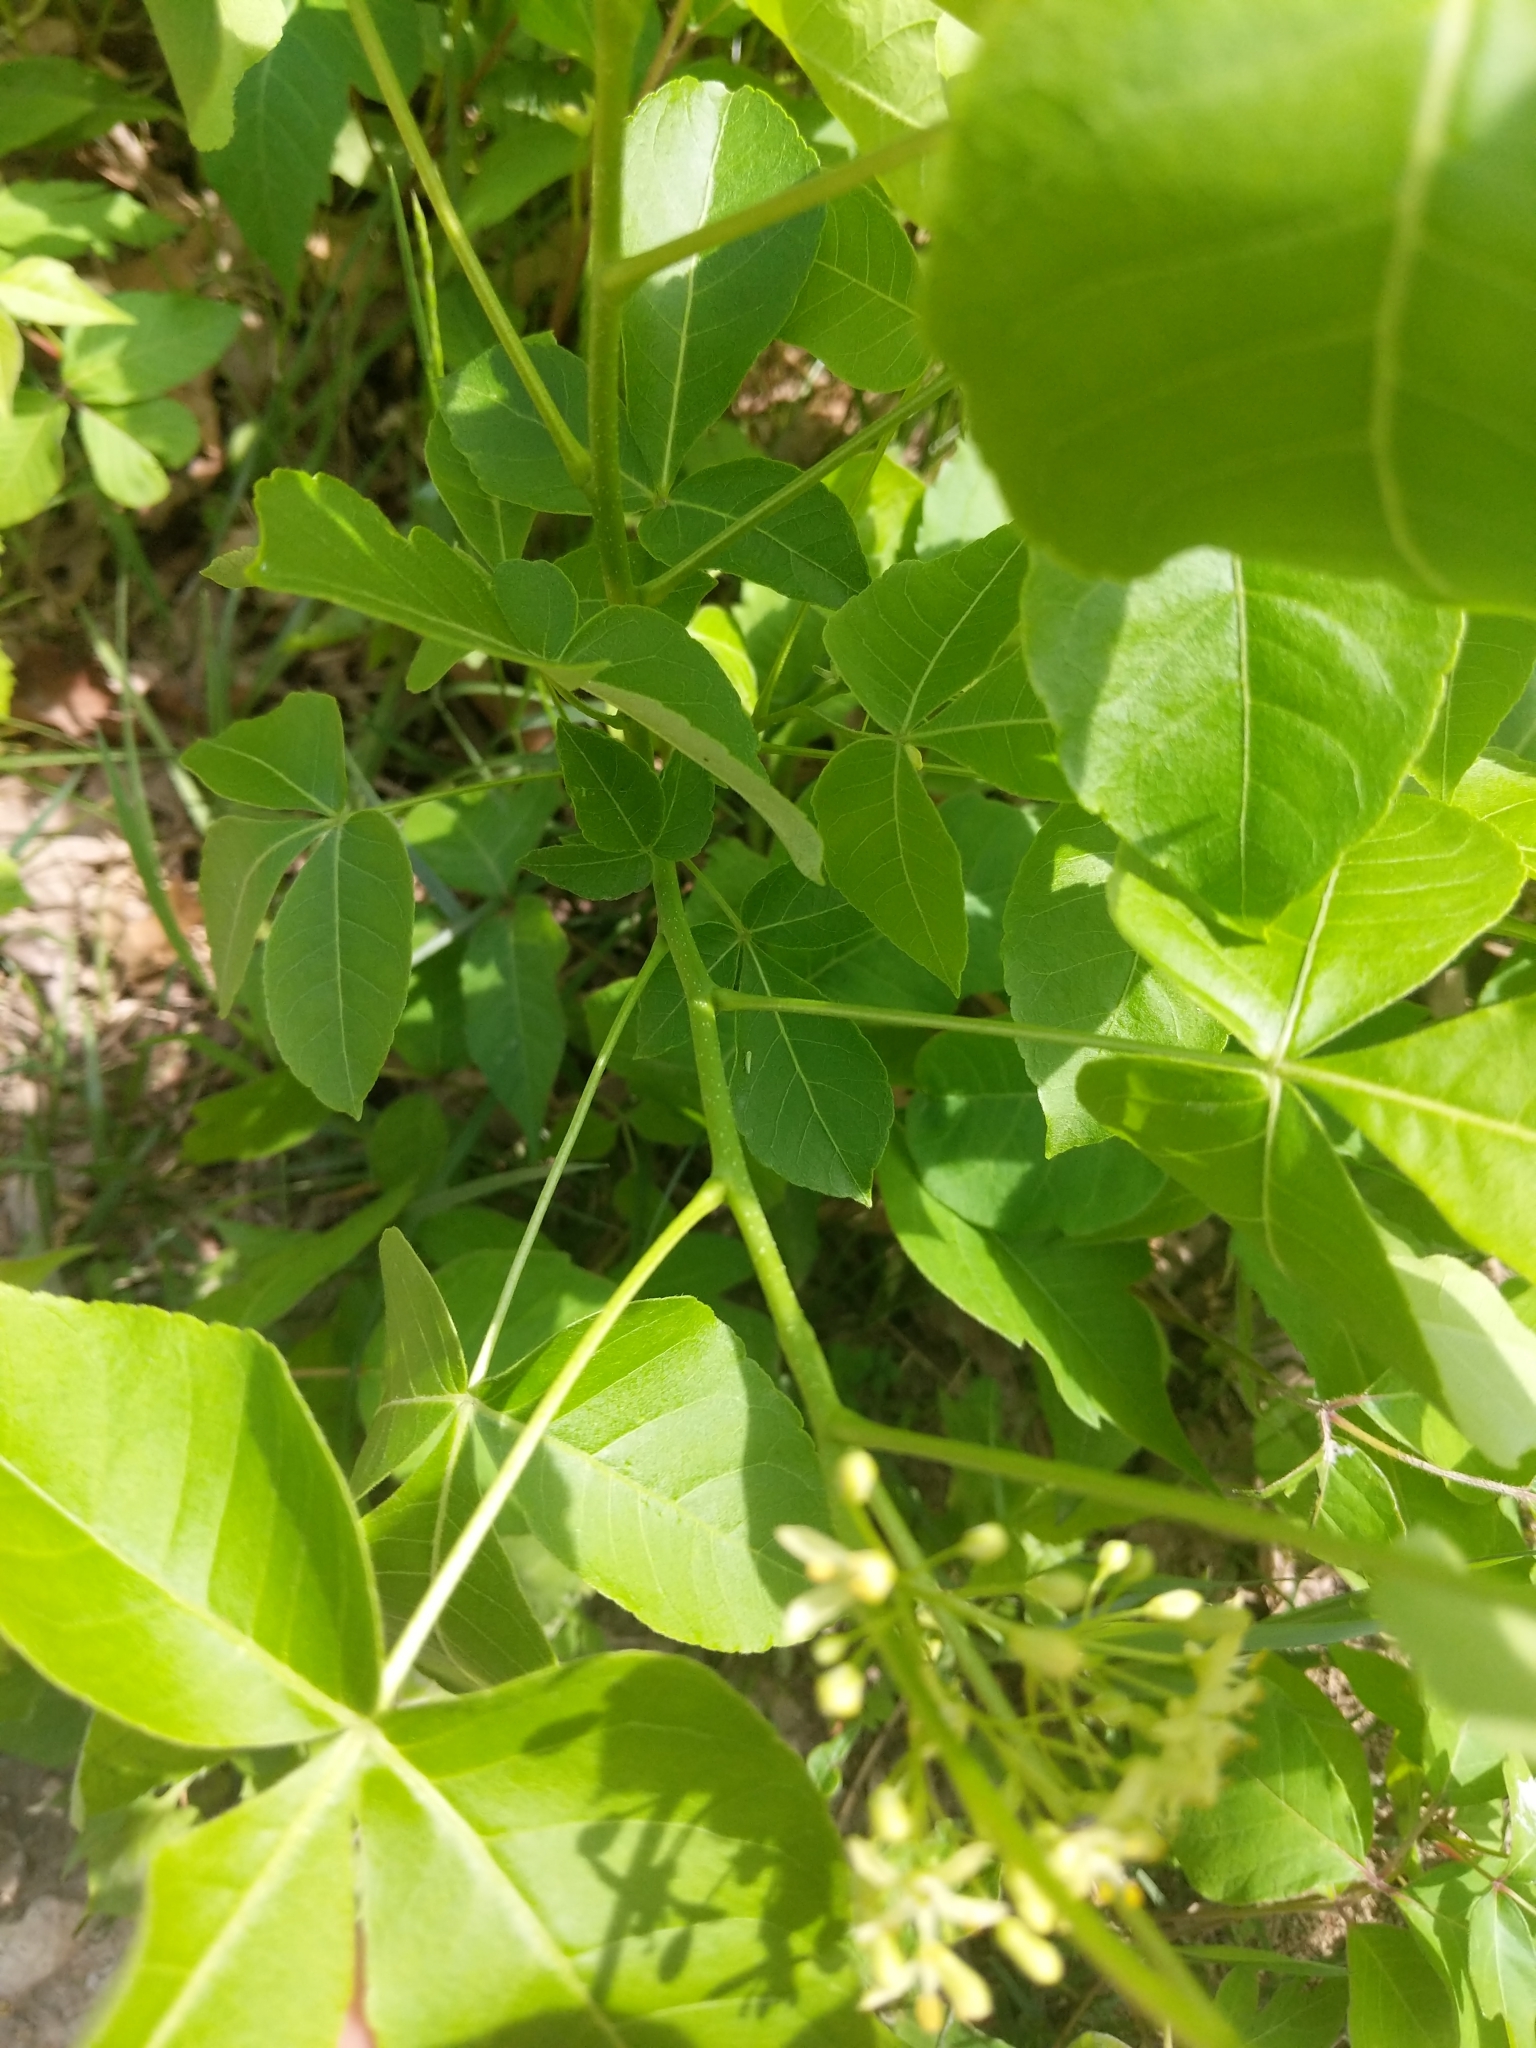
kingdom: Plantae
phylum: Tracheophyta
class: Magnoliopsida
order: Sapindales
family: Rutaceae
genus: Ptelea
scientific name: Ptelea trifoliata
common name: Common hop-tree
